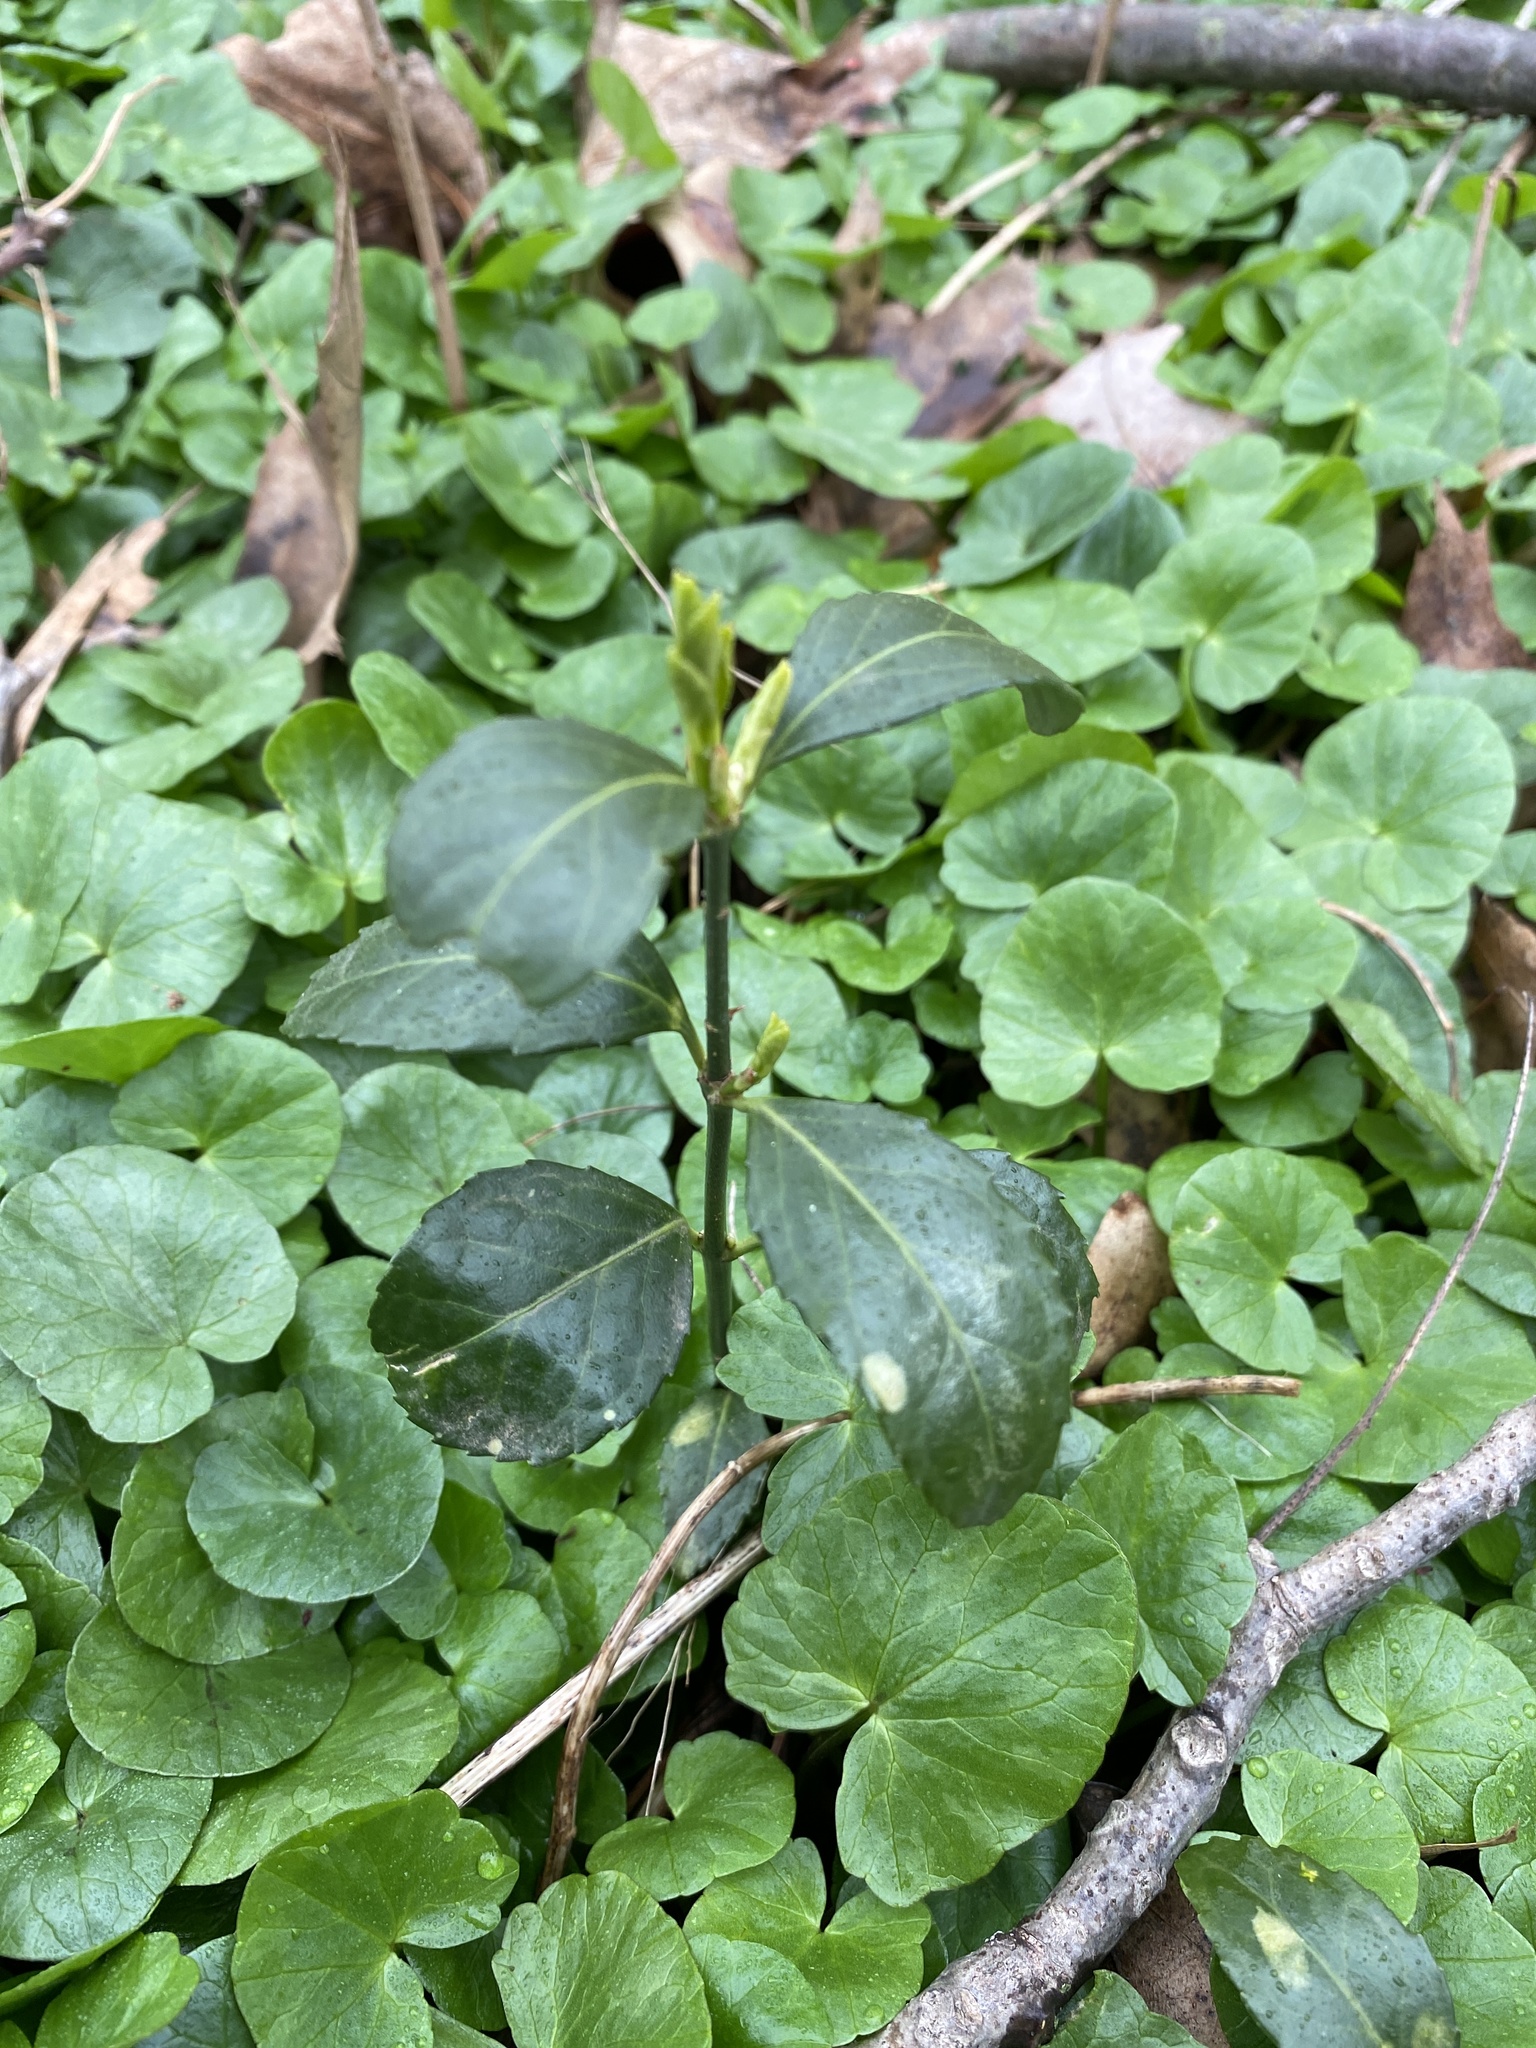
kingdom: Plantae
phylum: Tracheophyta
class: Magnoliopsida
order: Celastrales
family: Celastraceae
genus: Euonymus
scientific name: Euonymus fortunei
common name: Climbing euonymus
